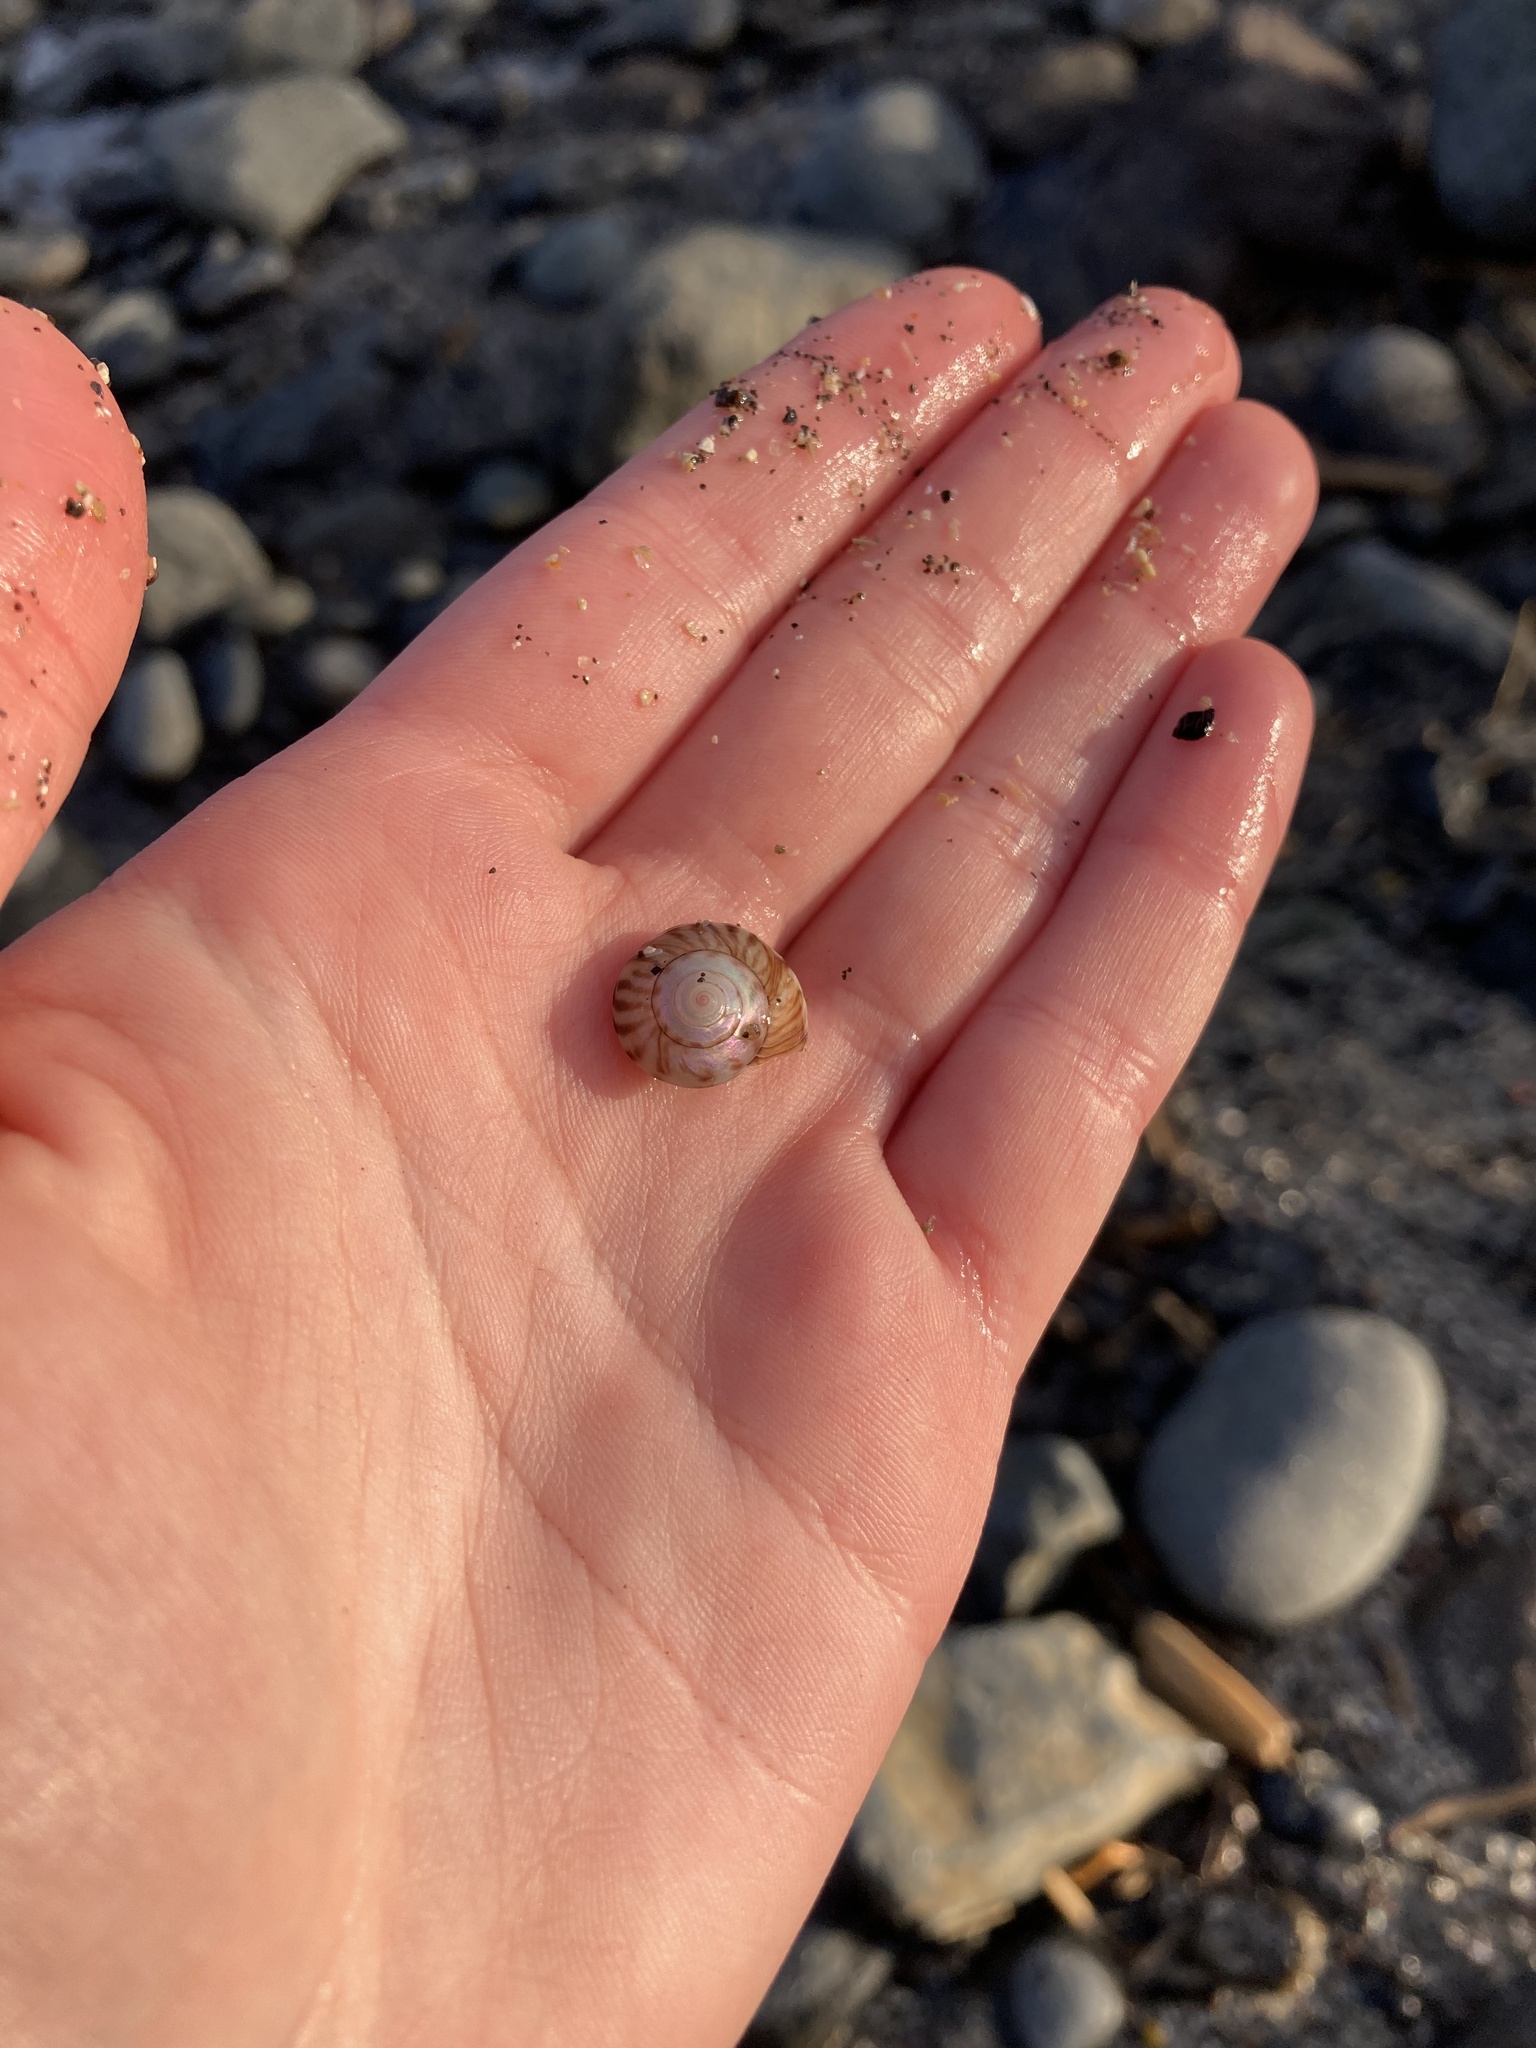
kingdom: Animalia
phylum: Mollusca
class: Gastropoda
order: Trochida
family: Trochidae
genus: Zethalia
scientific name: Zethalia zelandica
